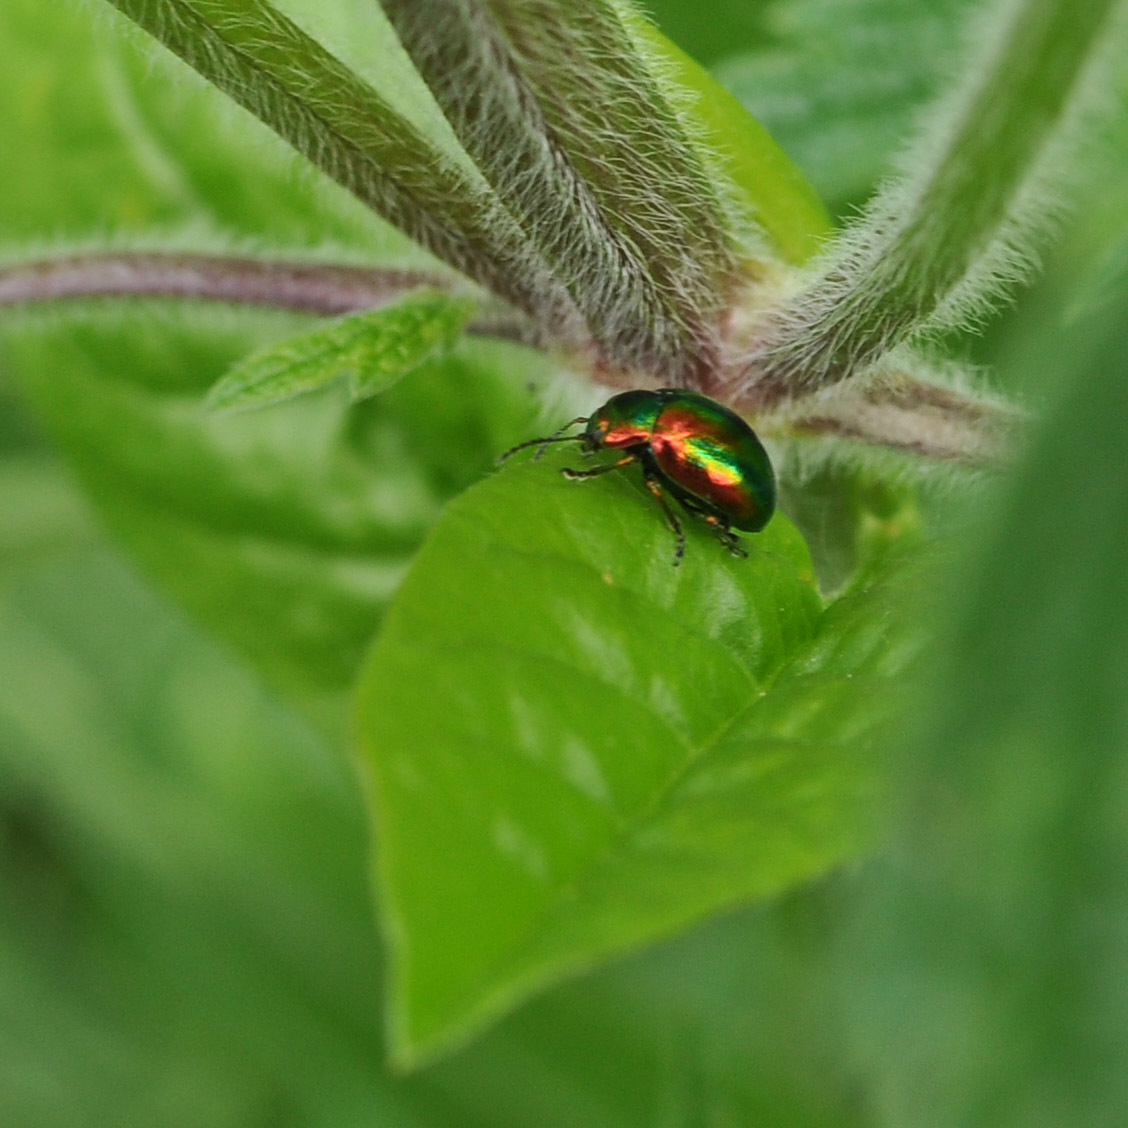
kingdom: Animalia
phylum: Arthropoda
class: Insecta
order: Coleoptera
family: Chrysomelidae
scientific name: Chrysomelidae
